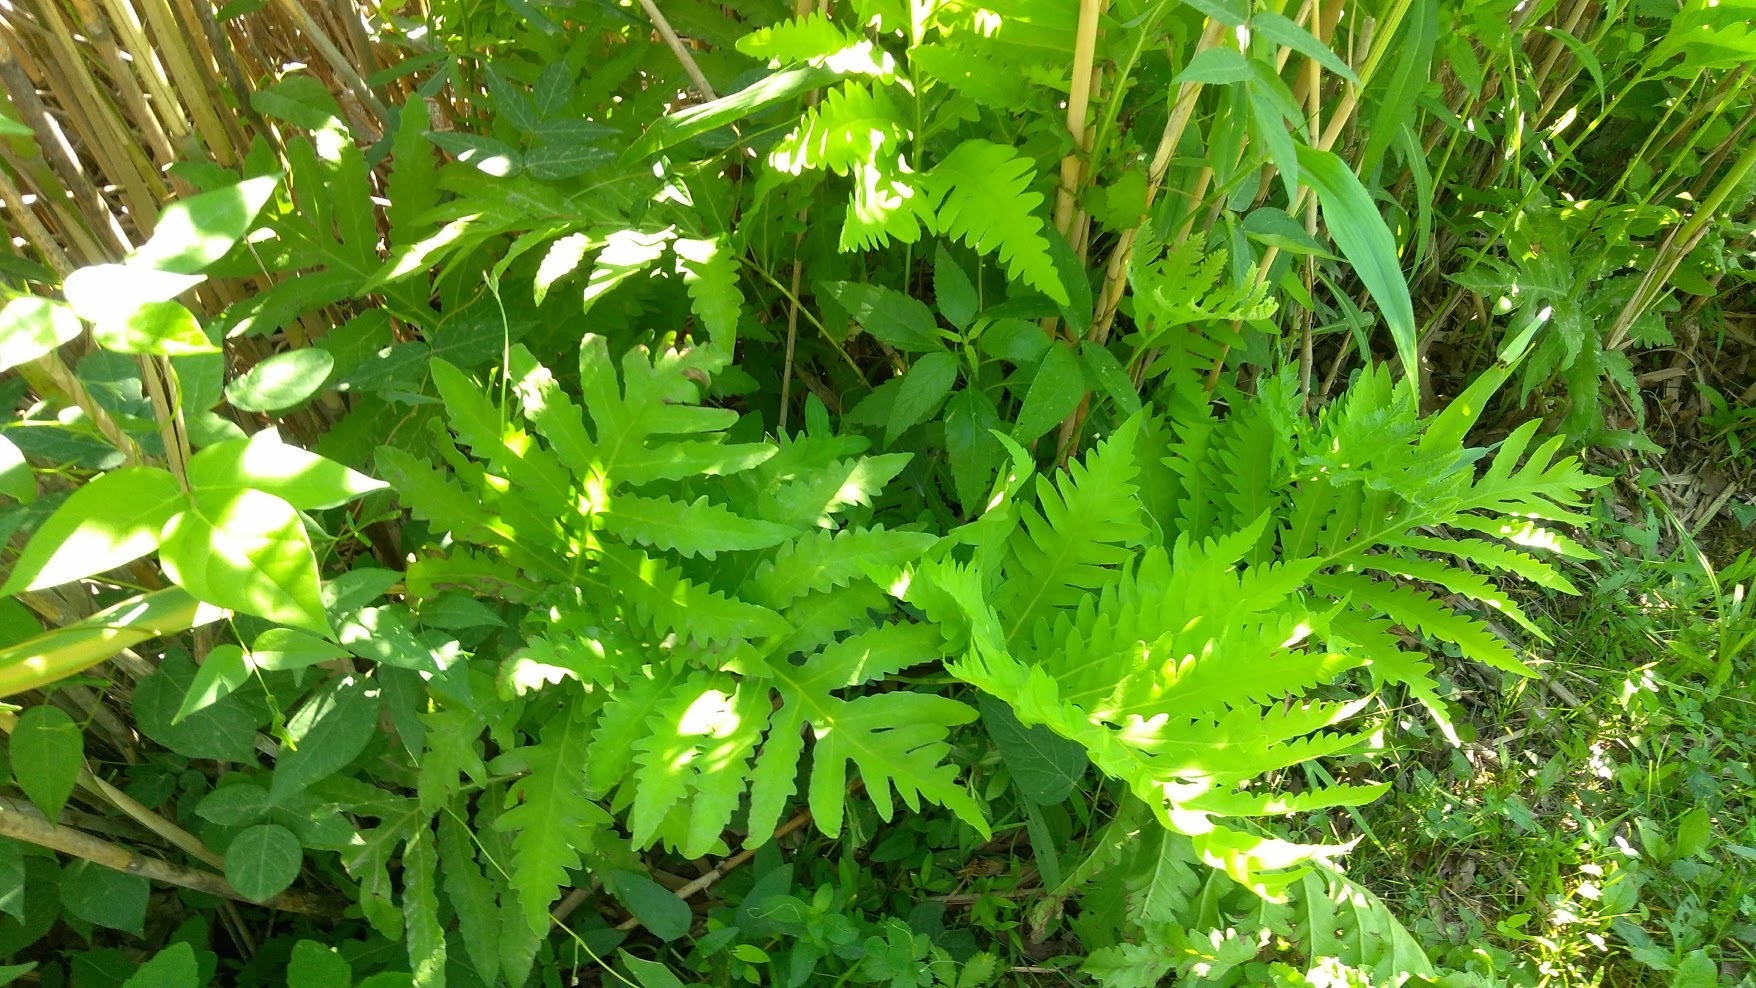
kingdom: Plantae
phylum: Tracheophyta
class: Polypodiopsida
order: Polypodiales
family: Onocleaceae
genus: Onoclea
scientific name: Onoclea sensibilis
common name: Sensitive fern
